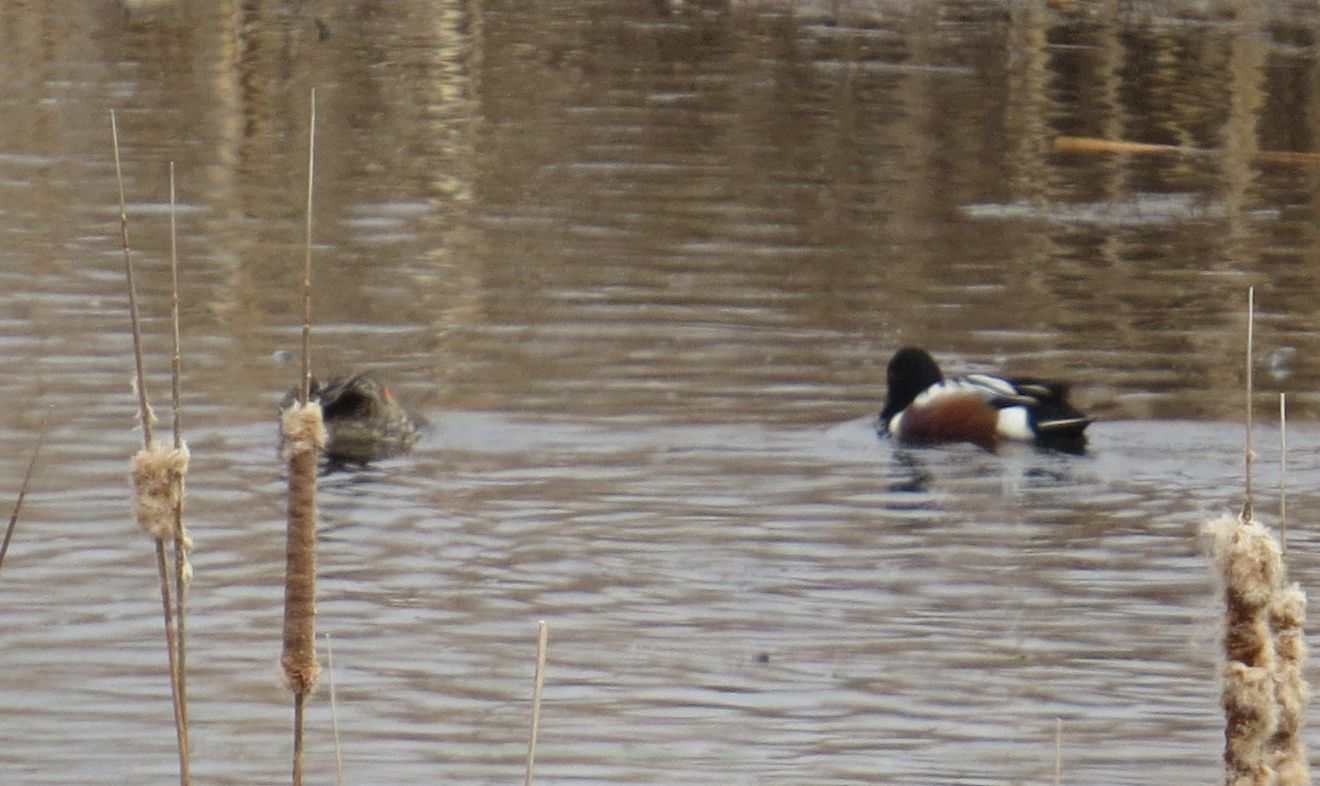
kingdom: Animalia
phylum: Chordata
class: Aves
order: Anseriformes
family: Anatidae
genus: Spatula
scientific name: Spatula clypeata
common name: Northern shoveler
